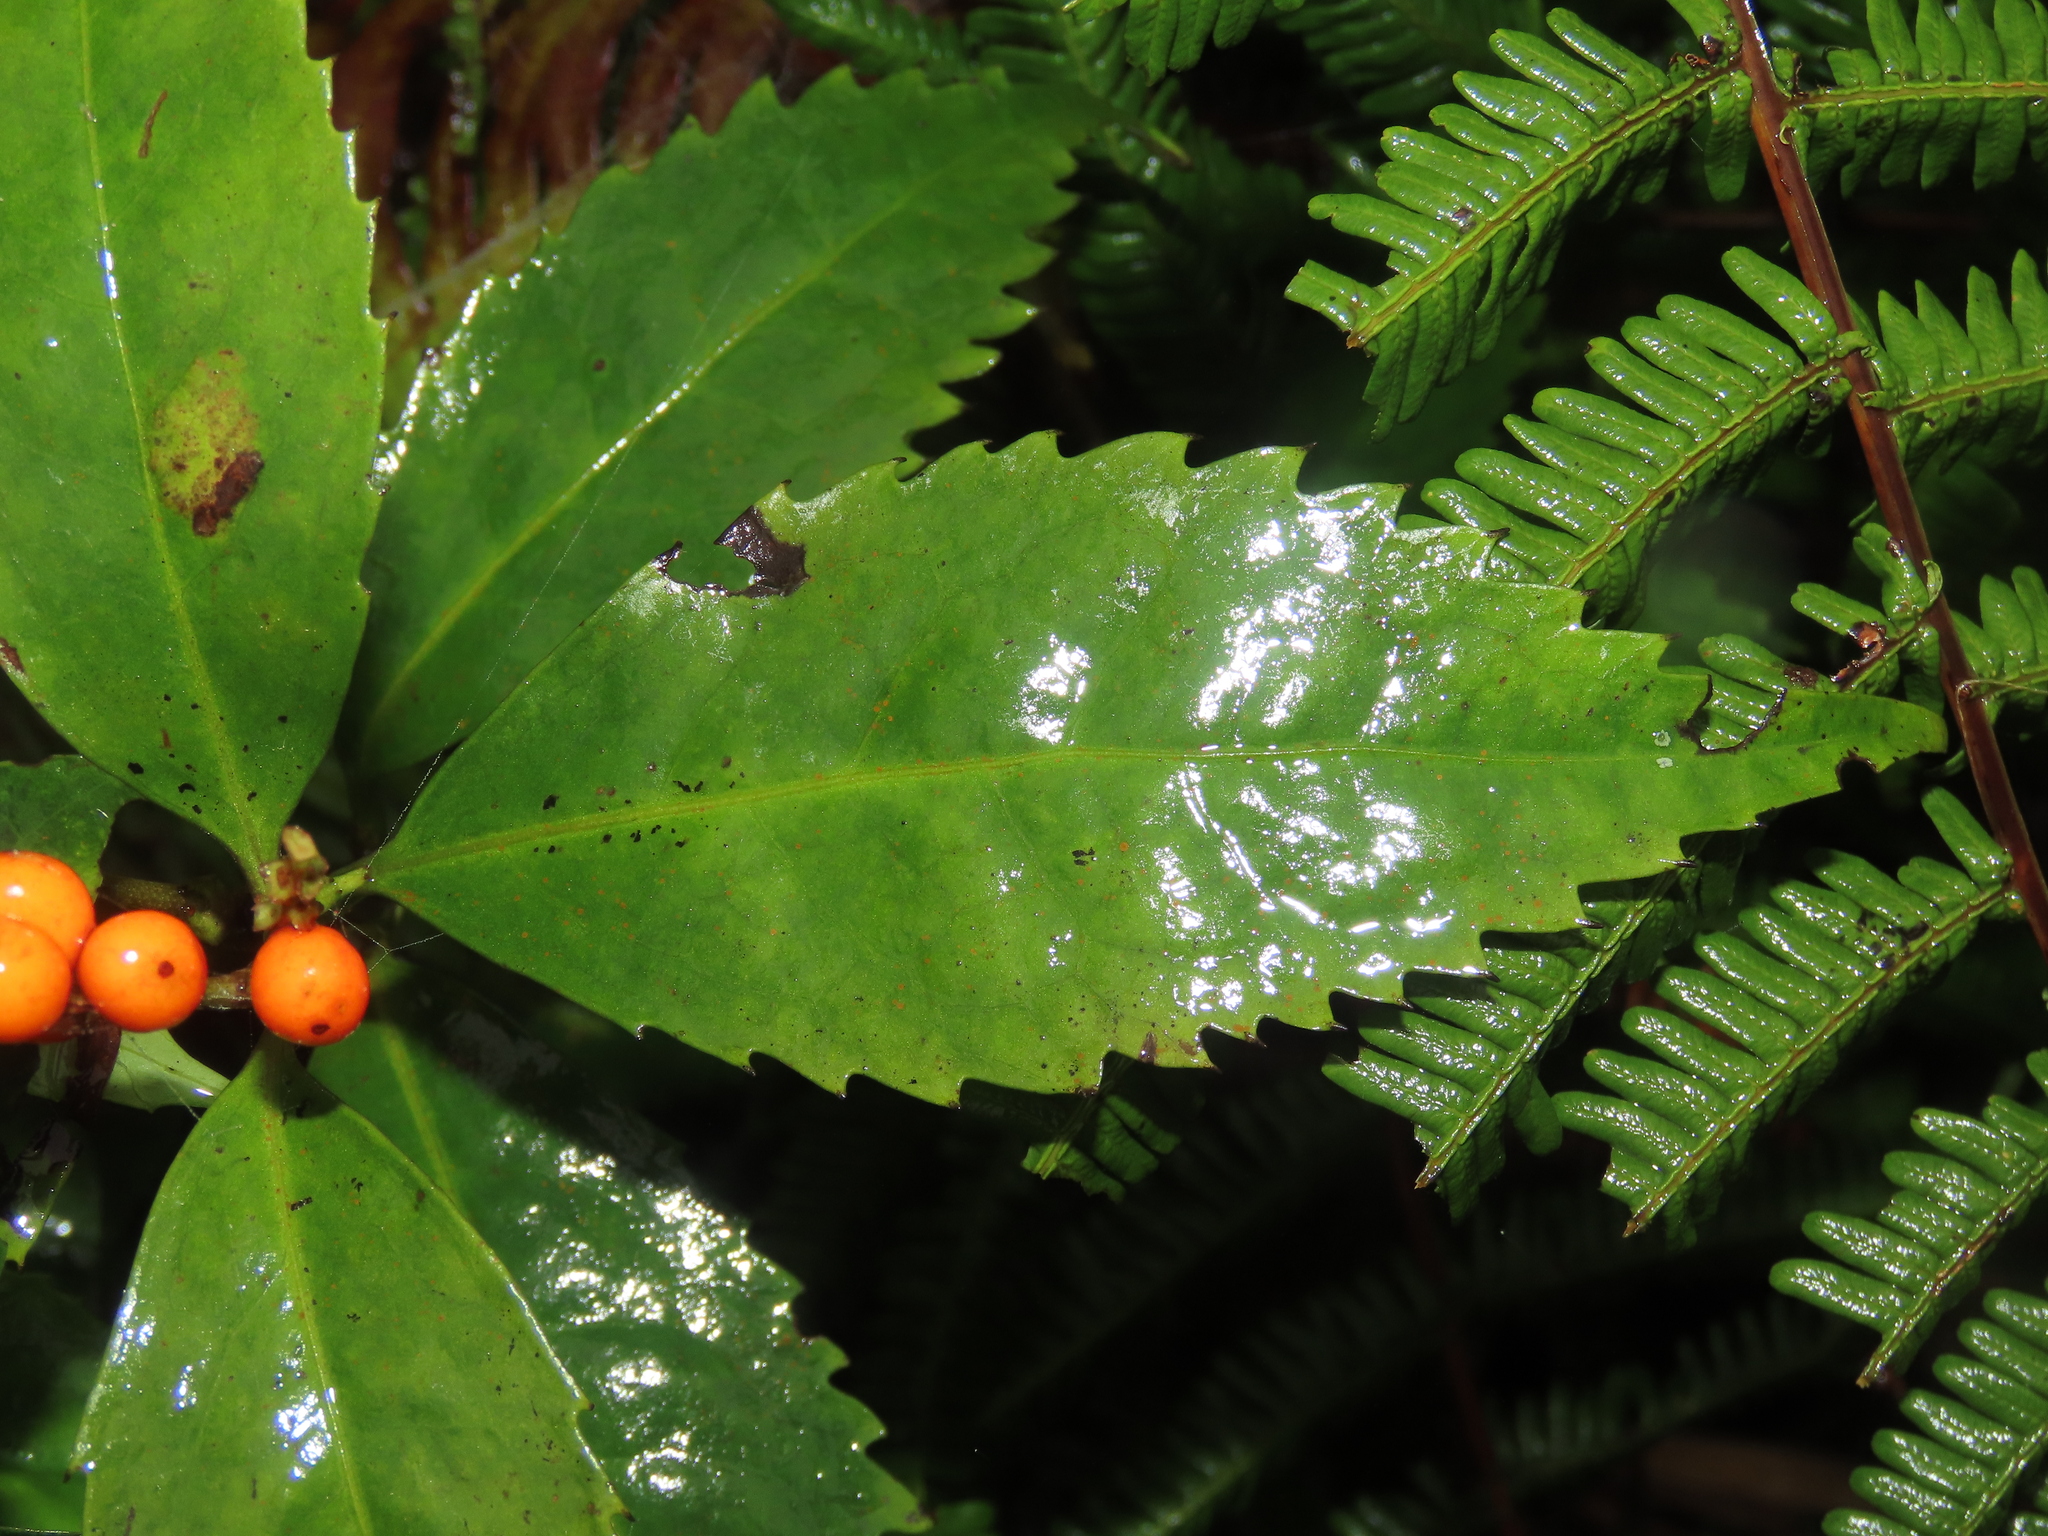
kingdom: Plantae
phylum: Tracheophyta
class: Magnoliopsida
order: Chloranthales
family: Chloranthaceae
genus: Sarcandra
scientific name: Sarcandra glabra
